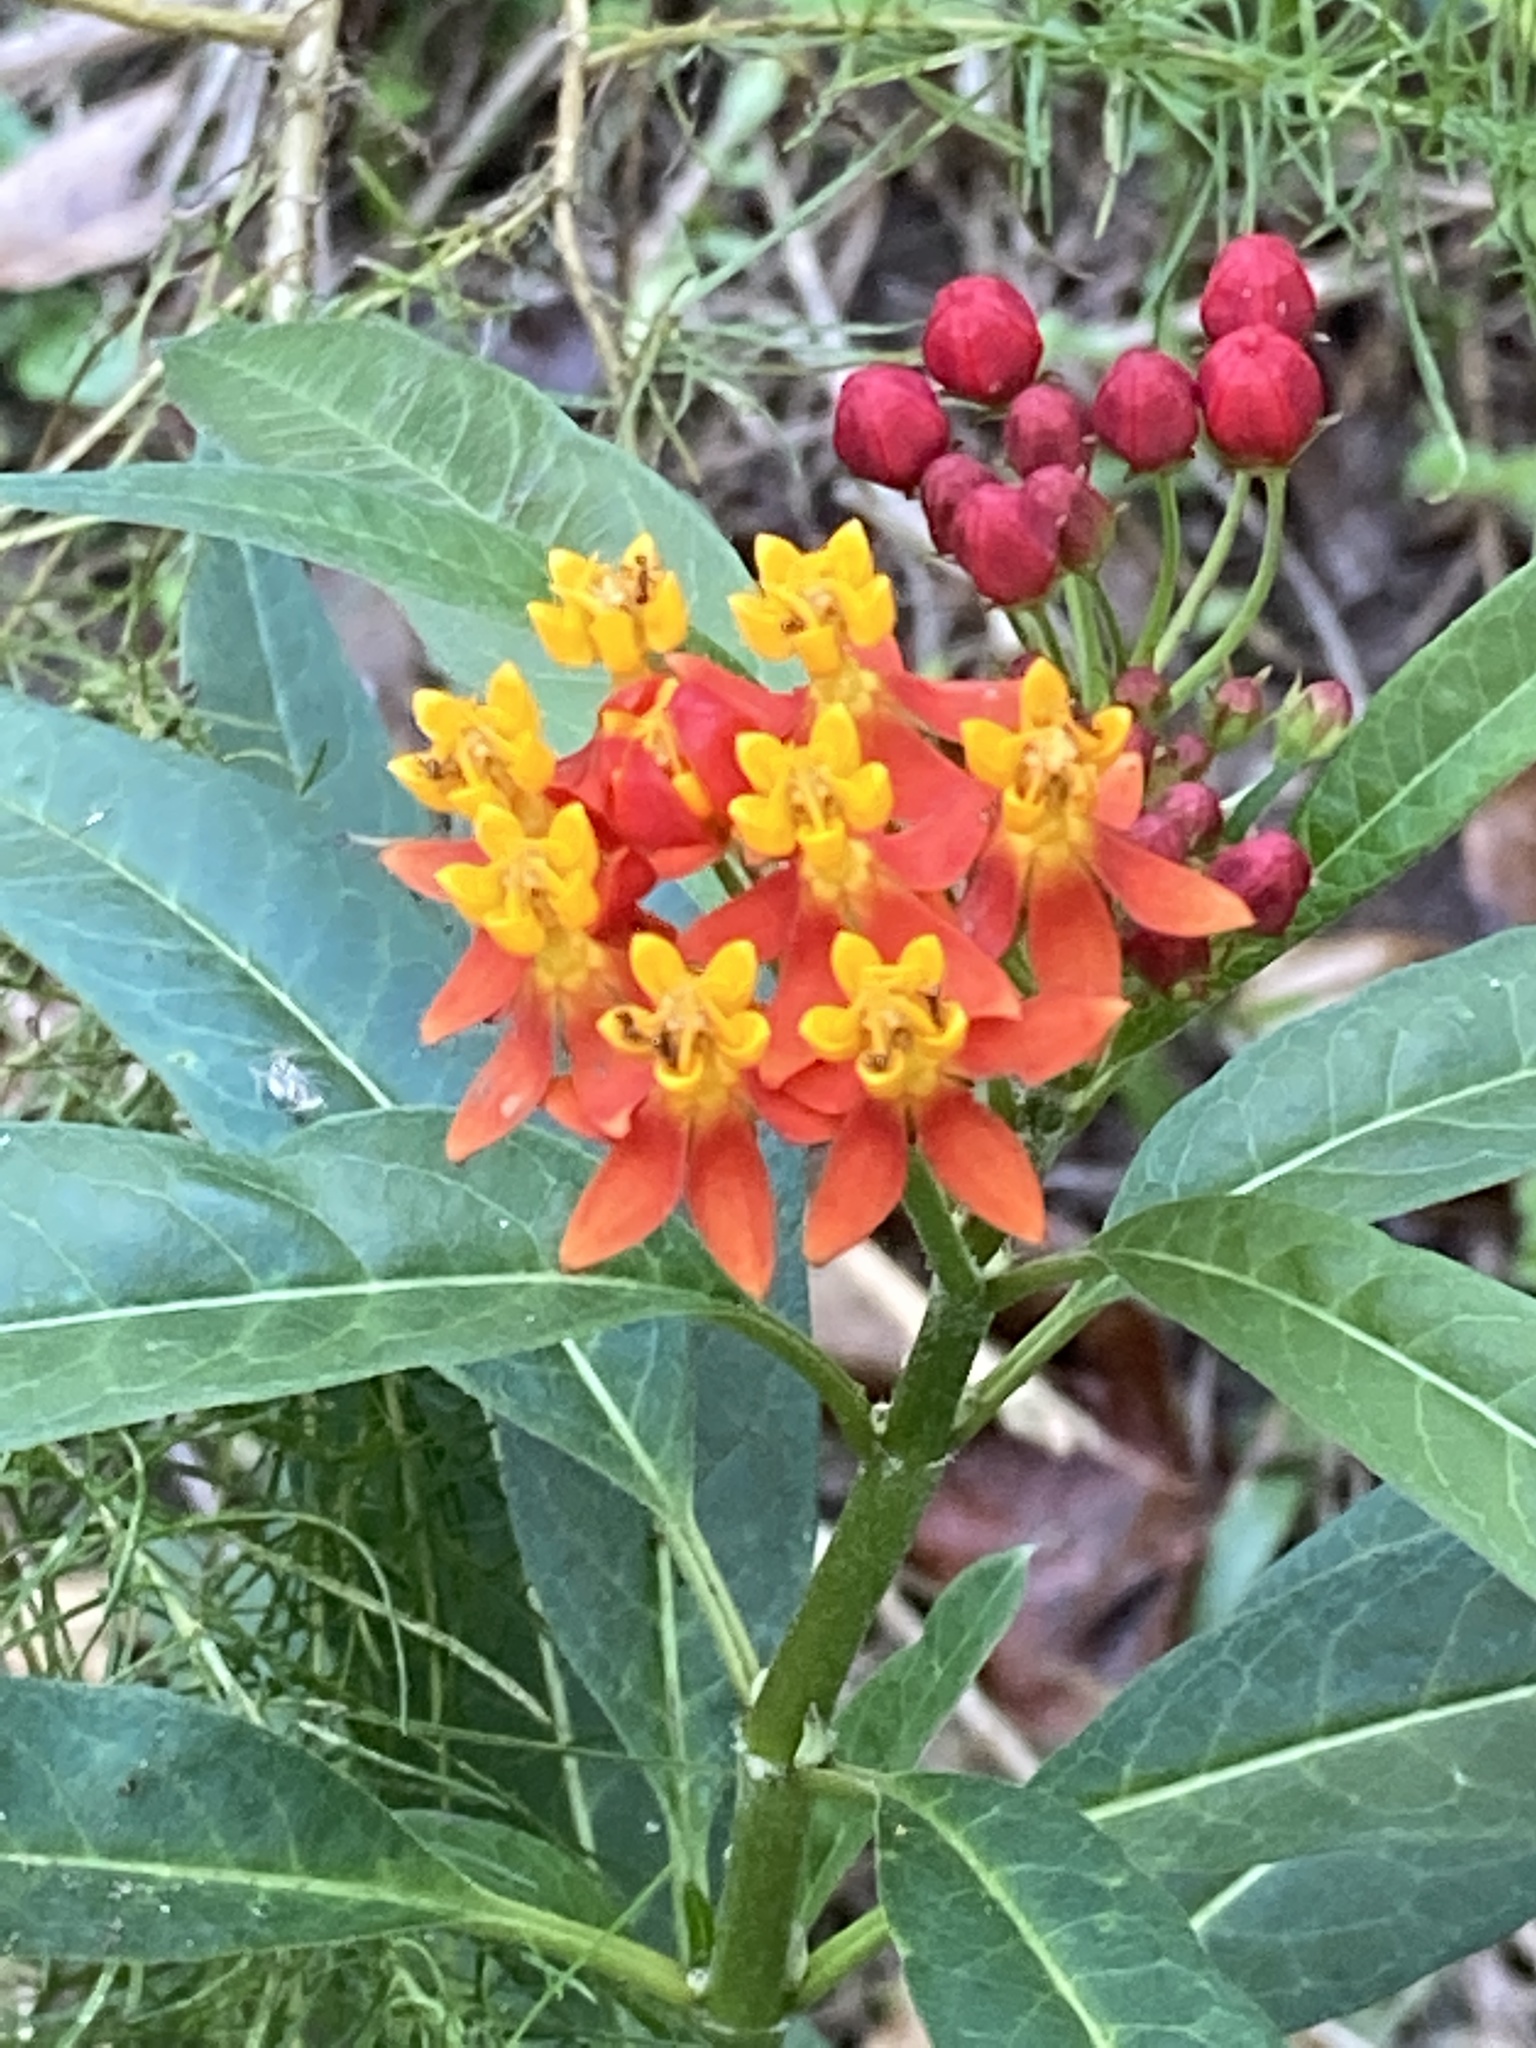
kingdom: Plantae
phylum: Tracheophyta
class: Magnoliopsida
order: Gentianales
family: Apocynaceae
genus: Asclepias
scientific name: Asclepias curassavica
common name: Bloodflower
